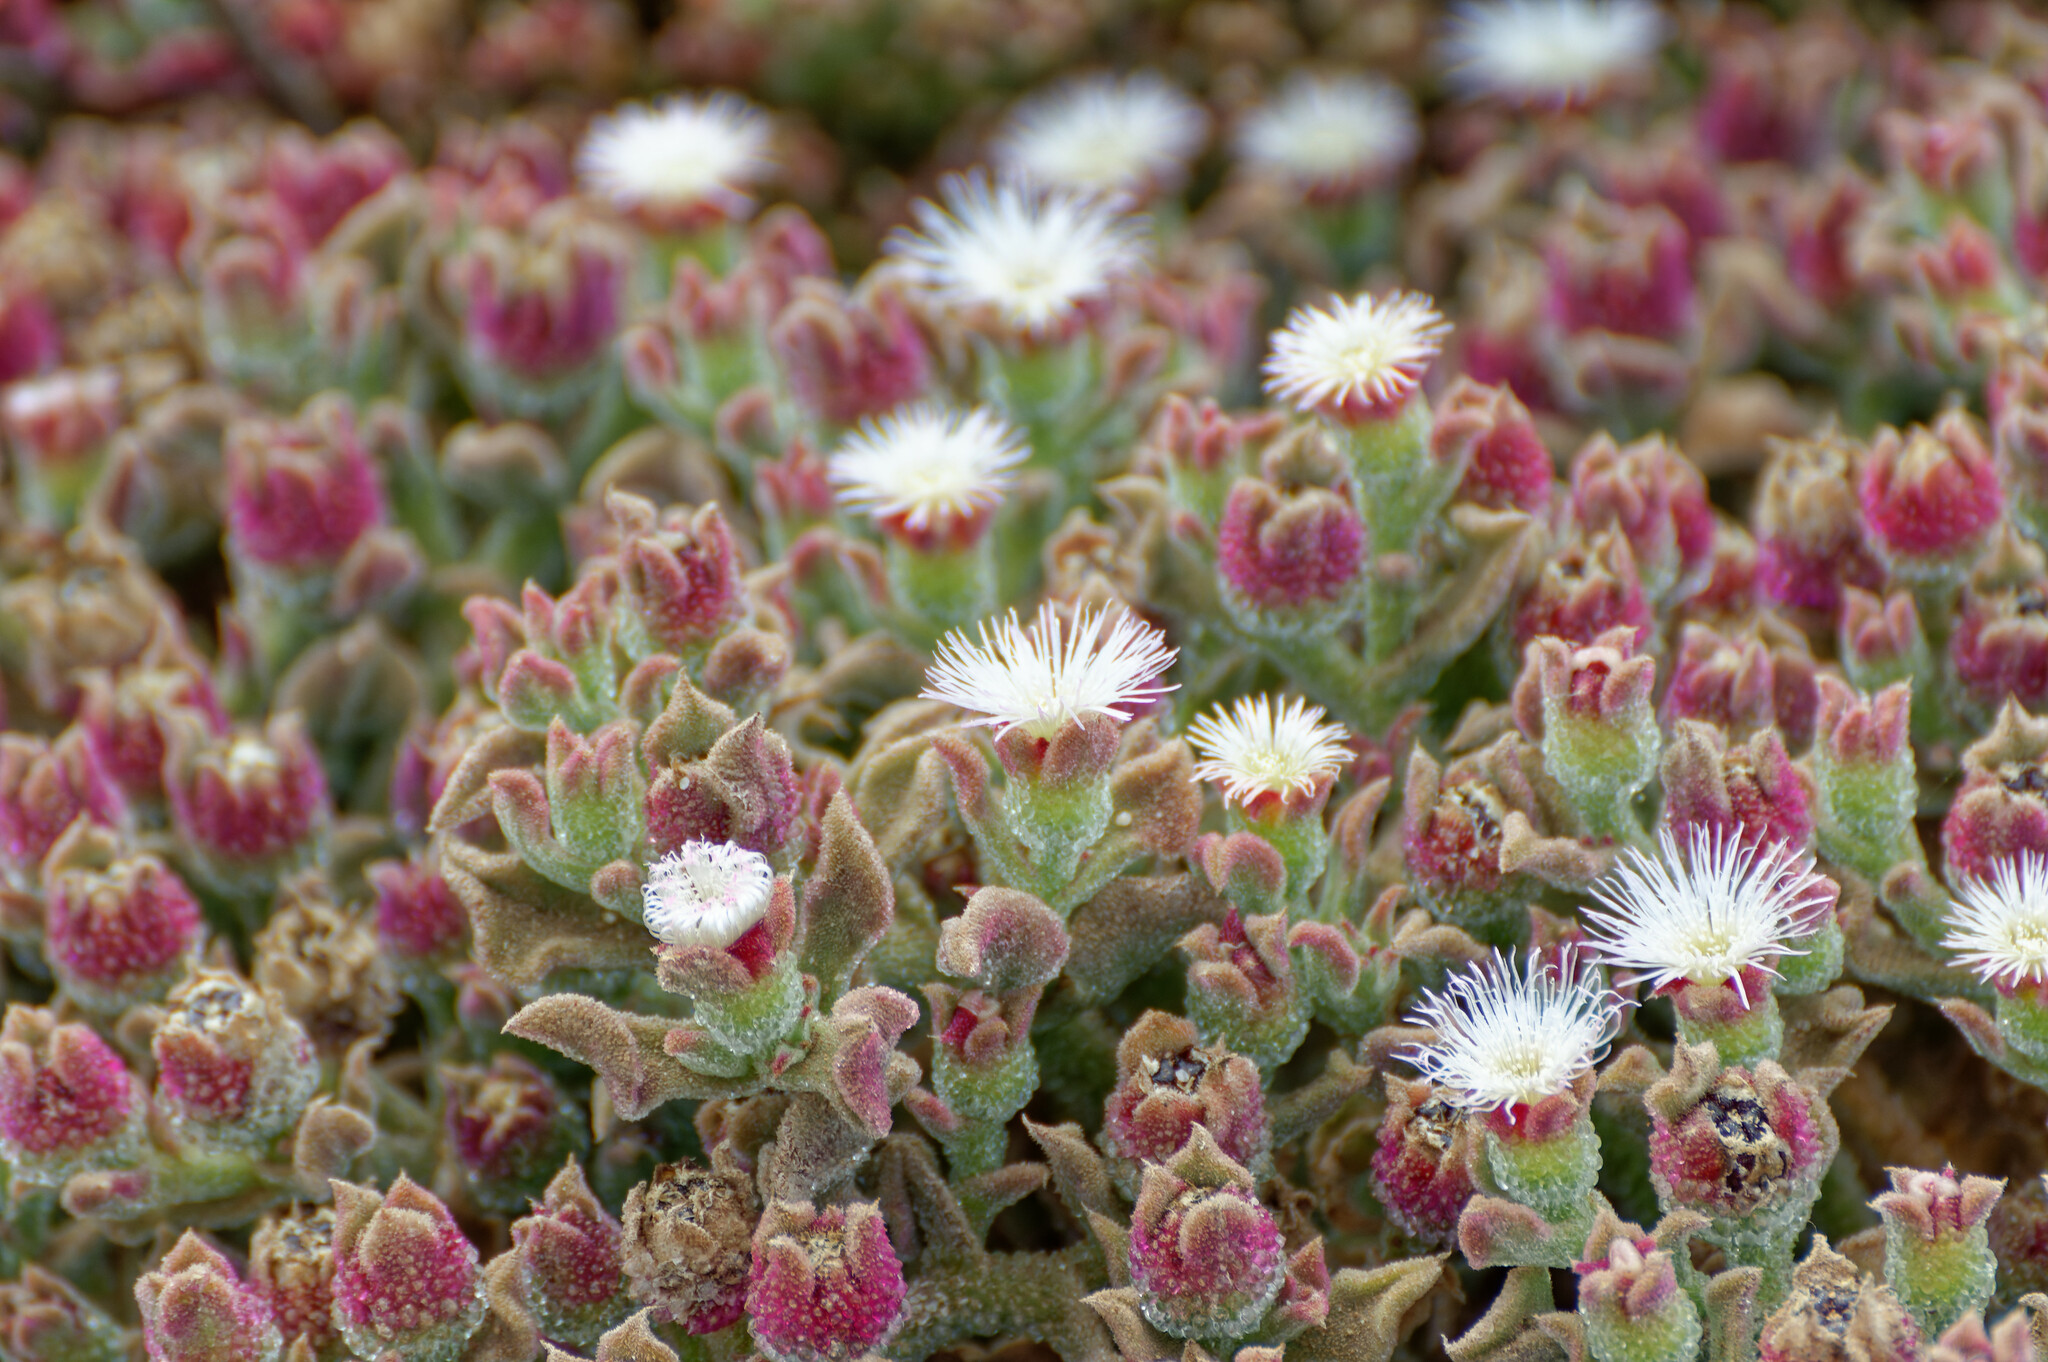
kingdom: Plantae
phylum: Tracheophyta
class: Magnoliopsida
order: Caryophyllales
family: Aizoaceae
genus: Mesembryanthemum
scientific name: Mesembryanthemum crystallinum
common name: Common iceplant
